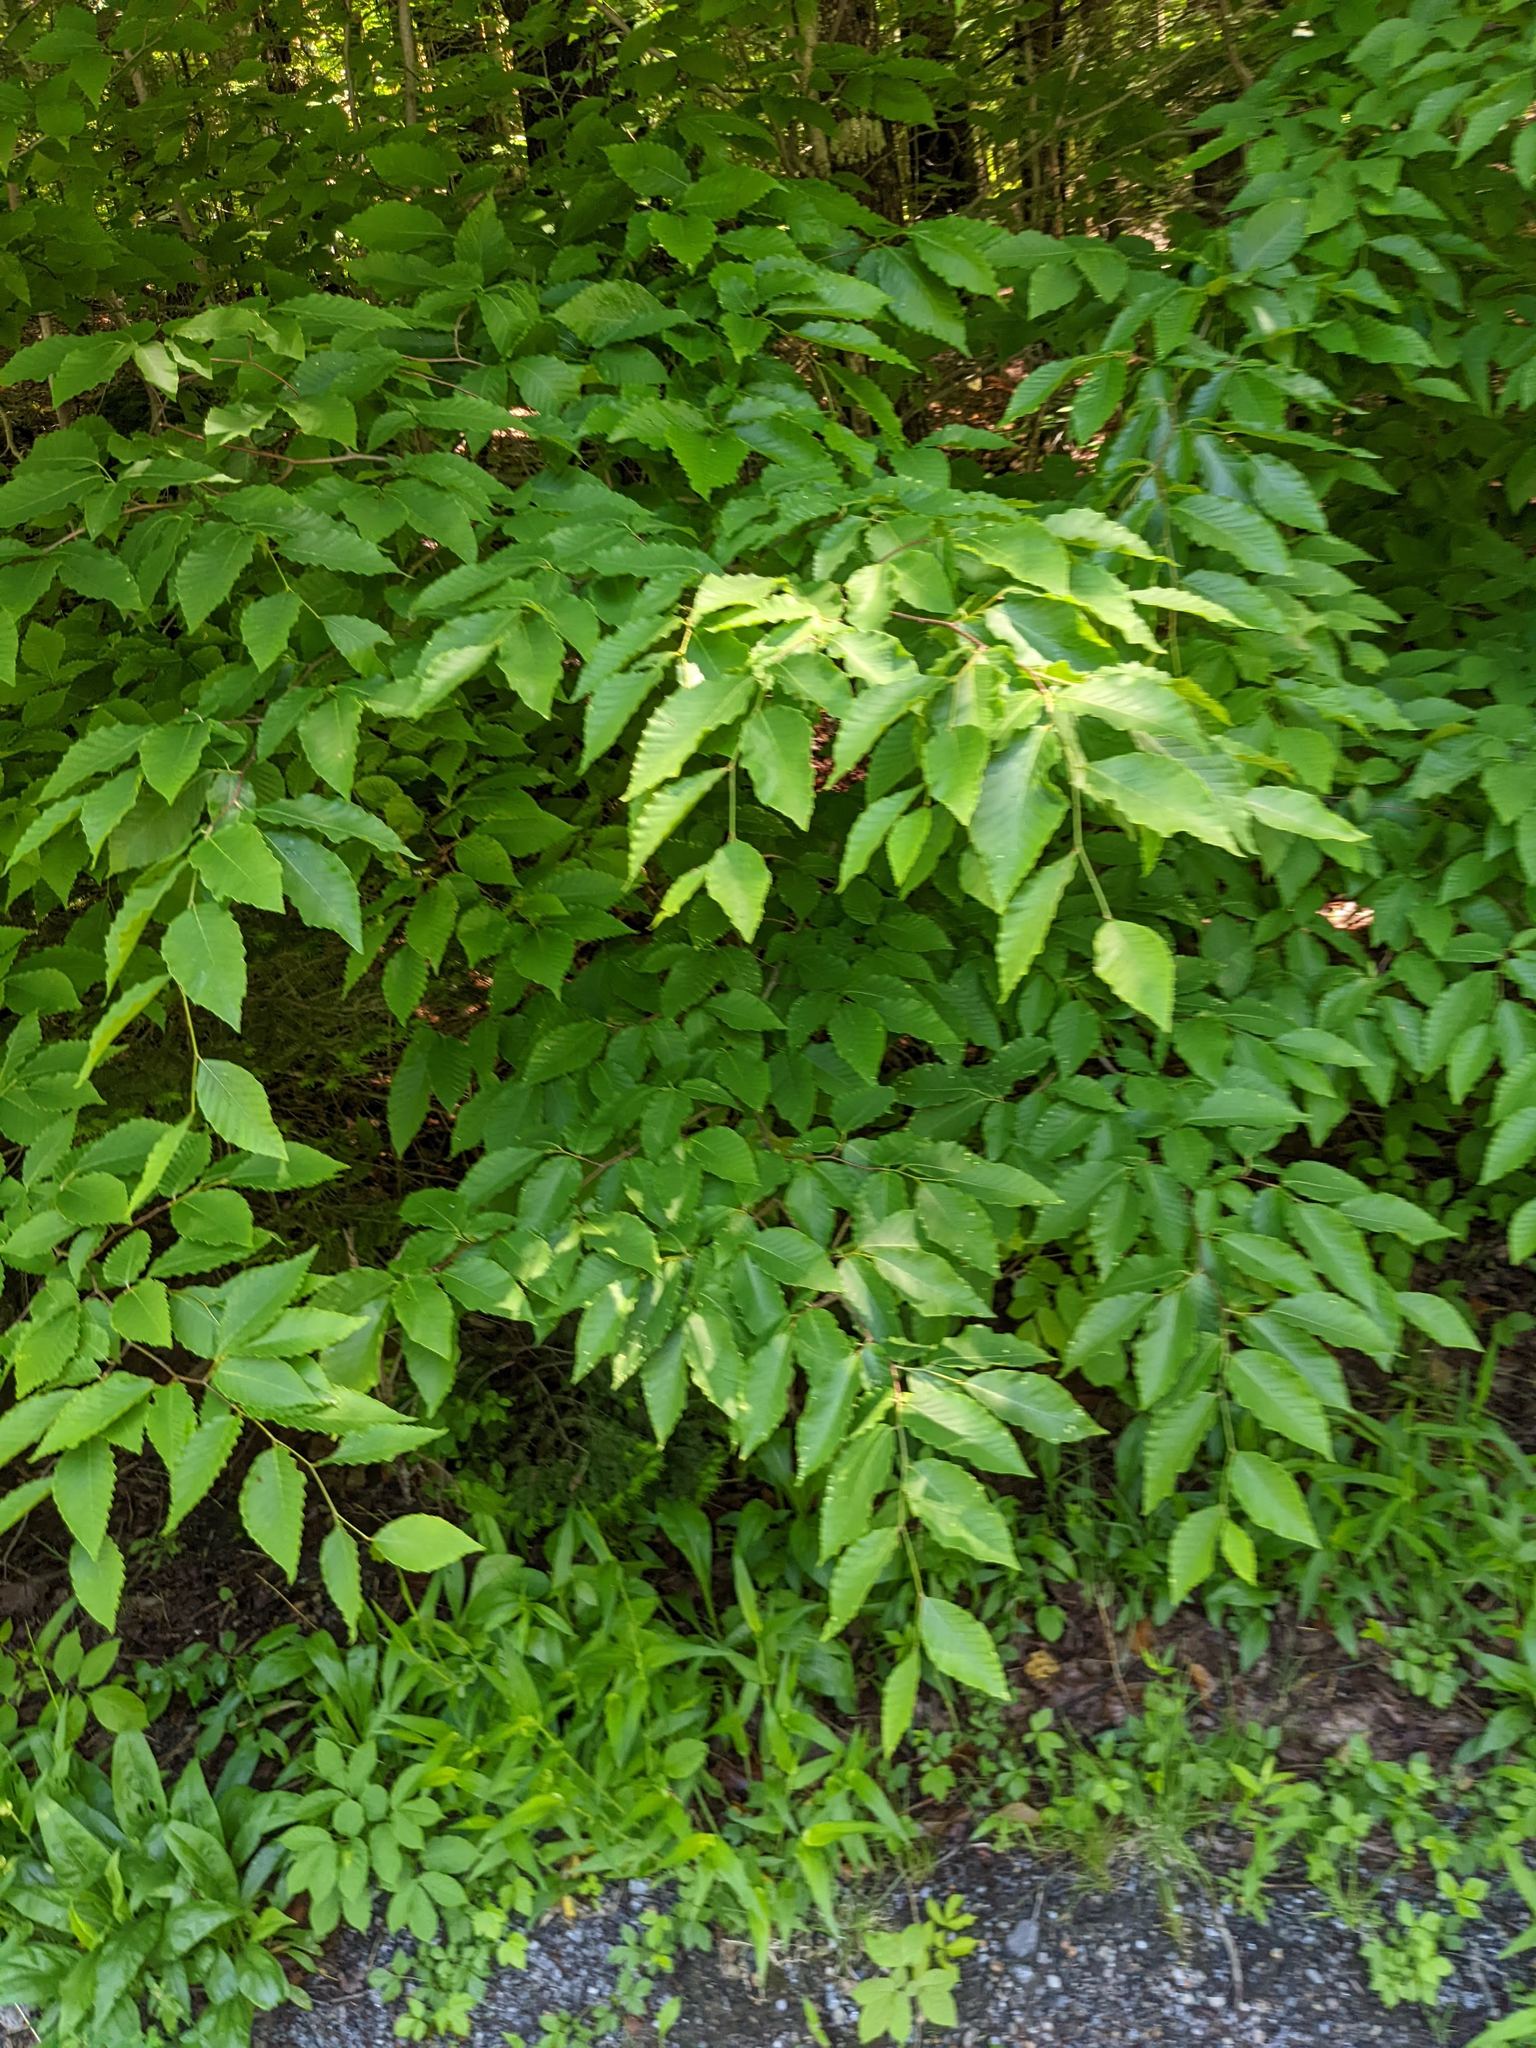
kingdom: Plantae
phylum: Tracheophyta
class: Magnoliopsida
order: Fagales
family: Fagaceae
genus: Fagus
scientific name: Fagus grandifolia
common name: American beech
